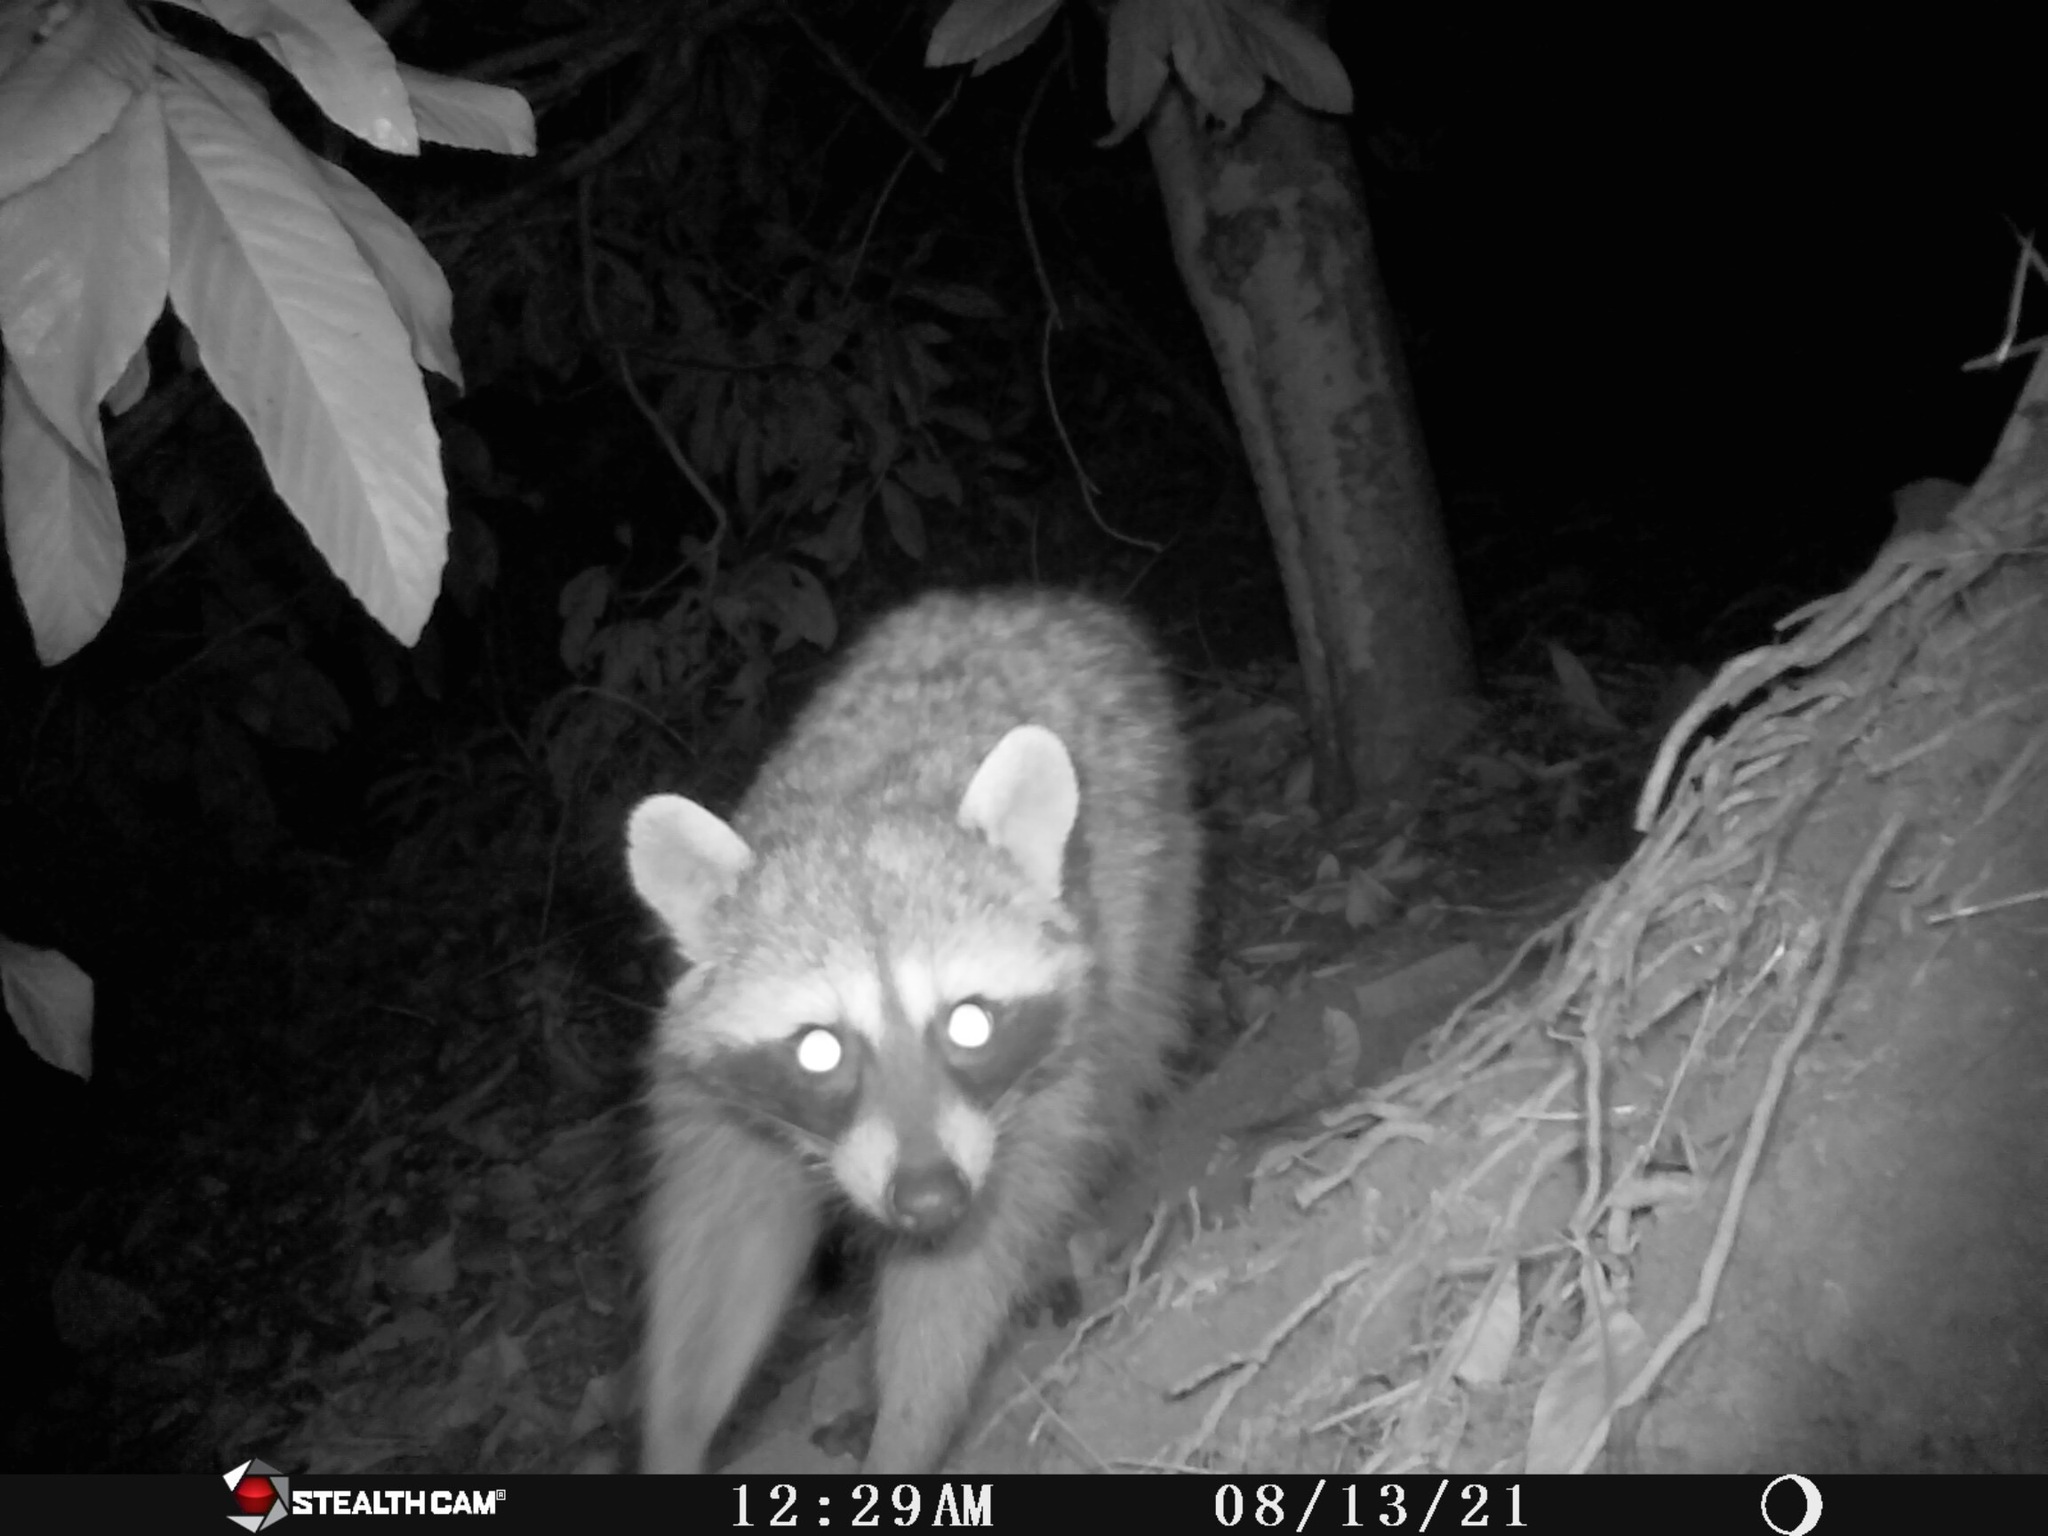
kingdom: Animalia
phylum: Chordata
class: Mammalia
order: Carnivora
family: Procyonidae
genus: Procyon
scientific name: Procyon lotor
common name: Raccoon
